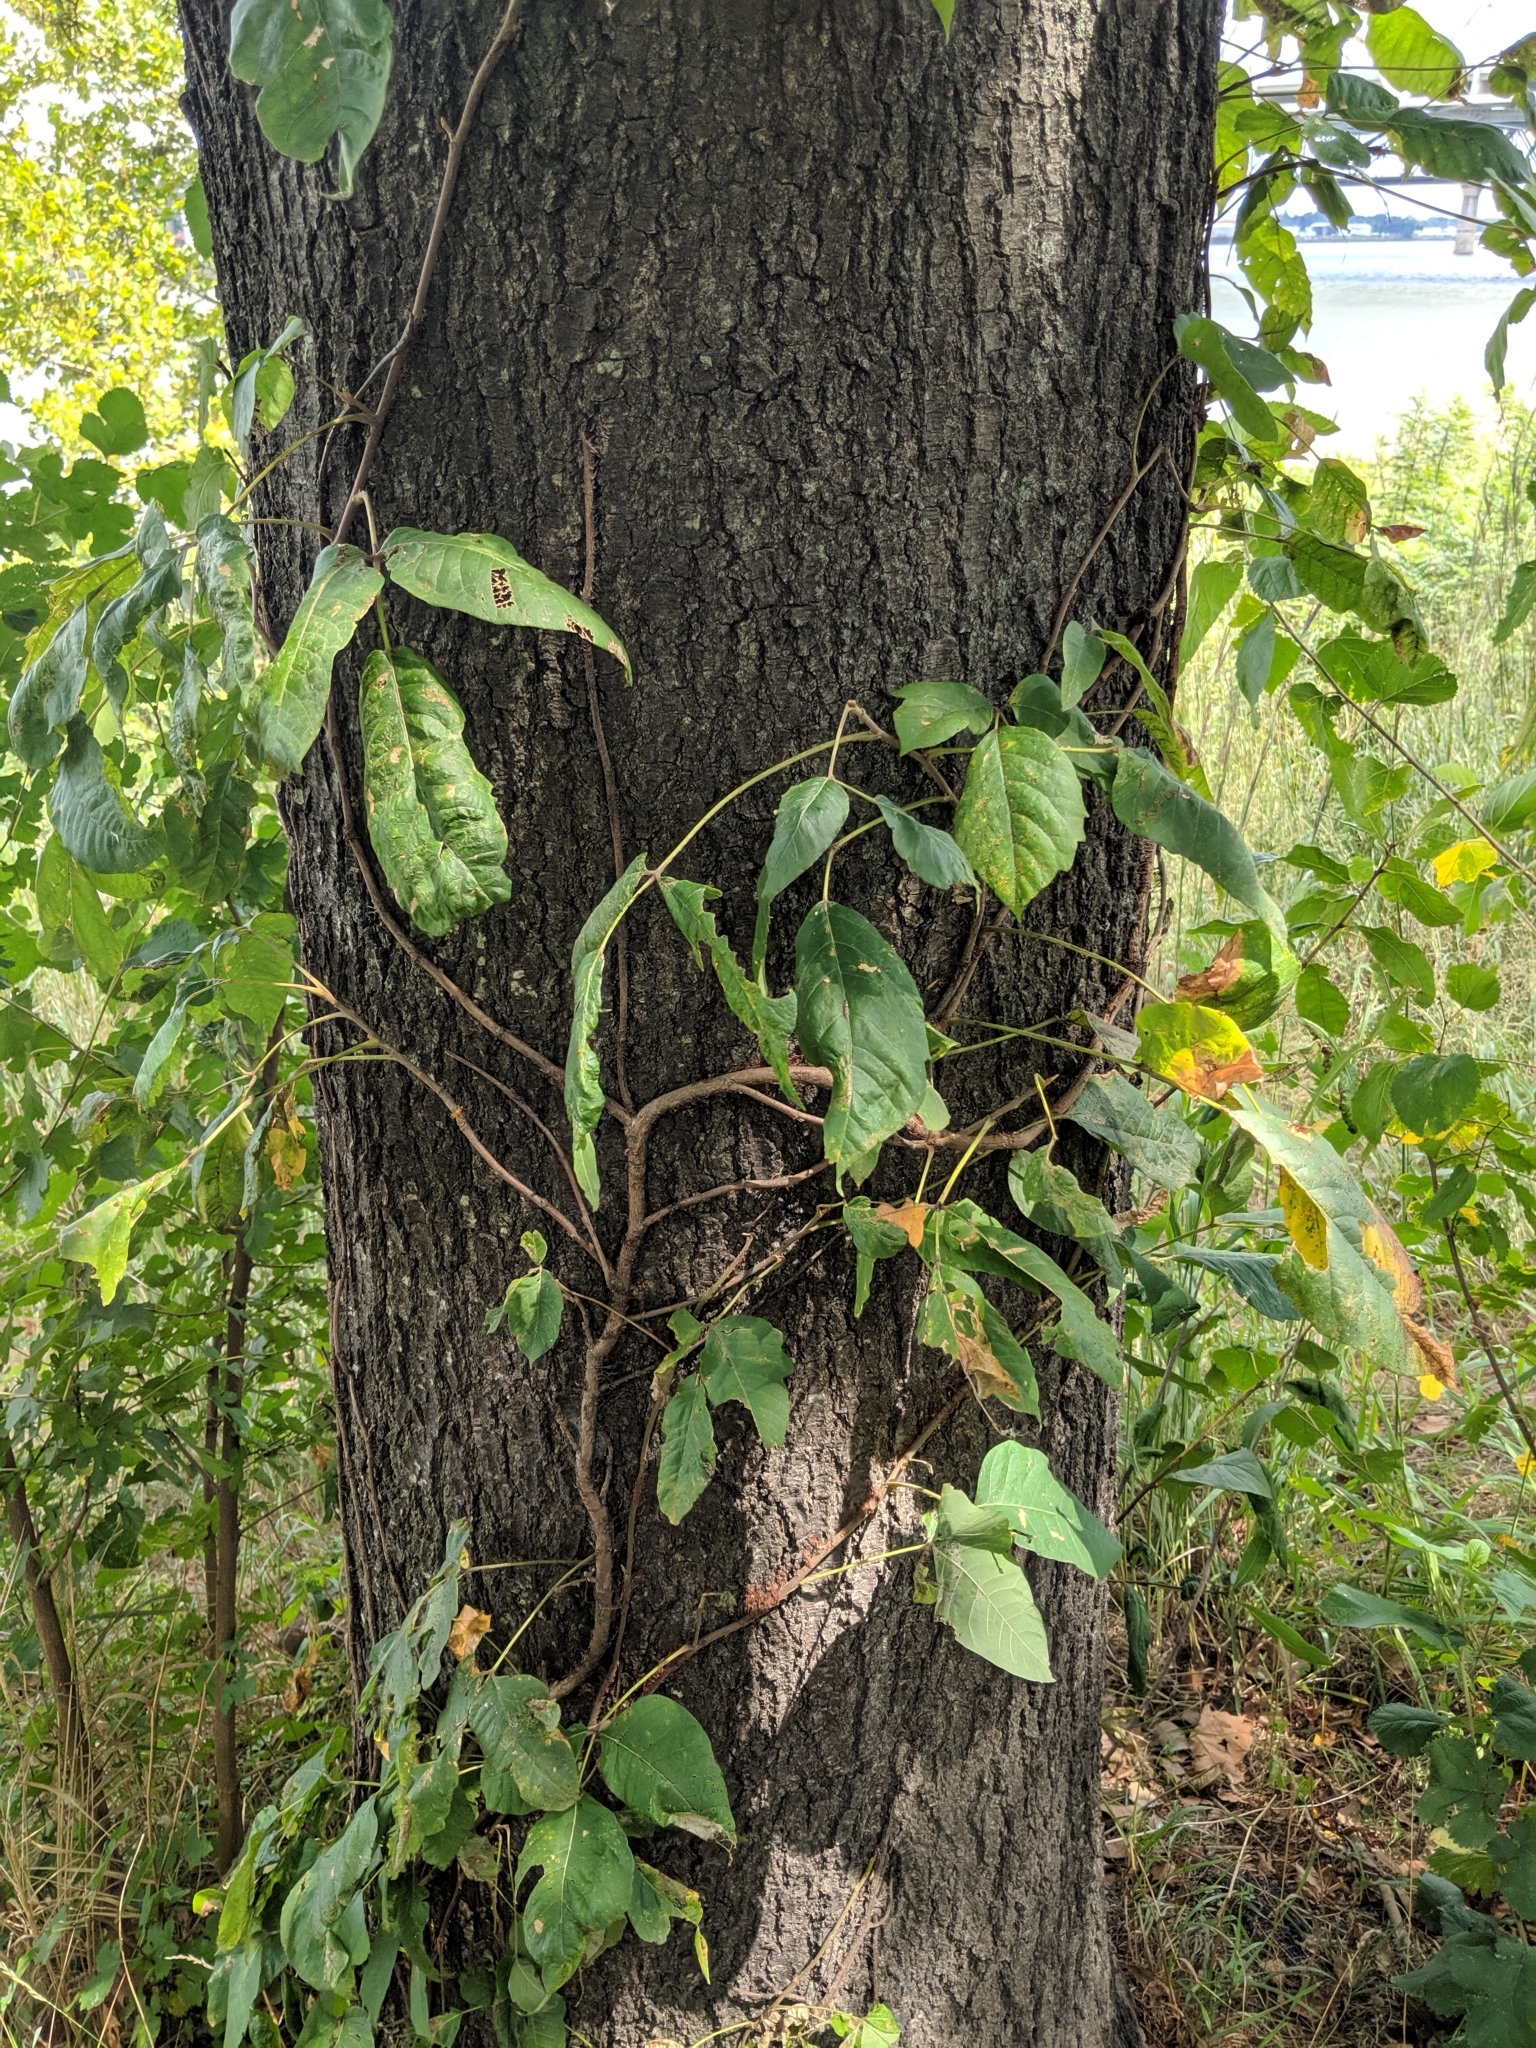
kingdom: Plantae
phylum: Tracheophyta
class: Magnoliopsida
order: Sapindales
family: Anacardiaceae
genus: Toxicodendron
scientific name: Toxicodendron radicans
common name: Poison ivy
